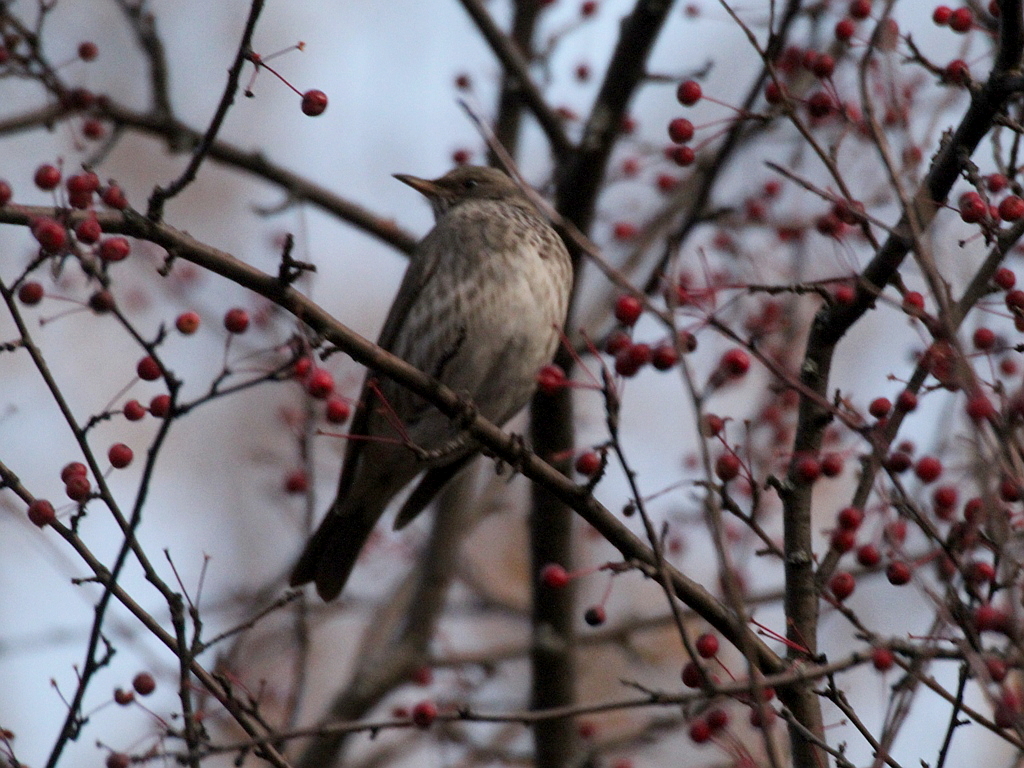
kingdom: Animalia
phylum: Chordata
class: Aves
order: Passeriformes
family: Turdidae
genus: Turdus
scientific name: Turdus atrogularis
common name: Black-throated thrush
